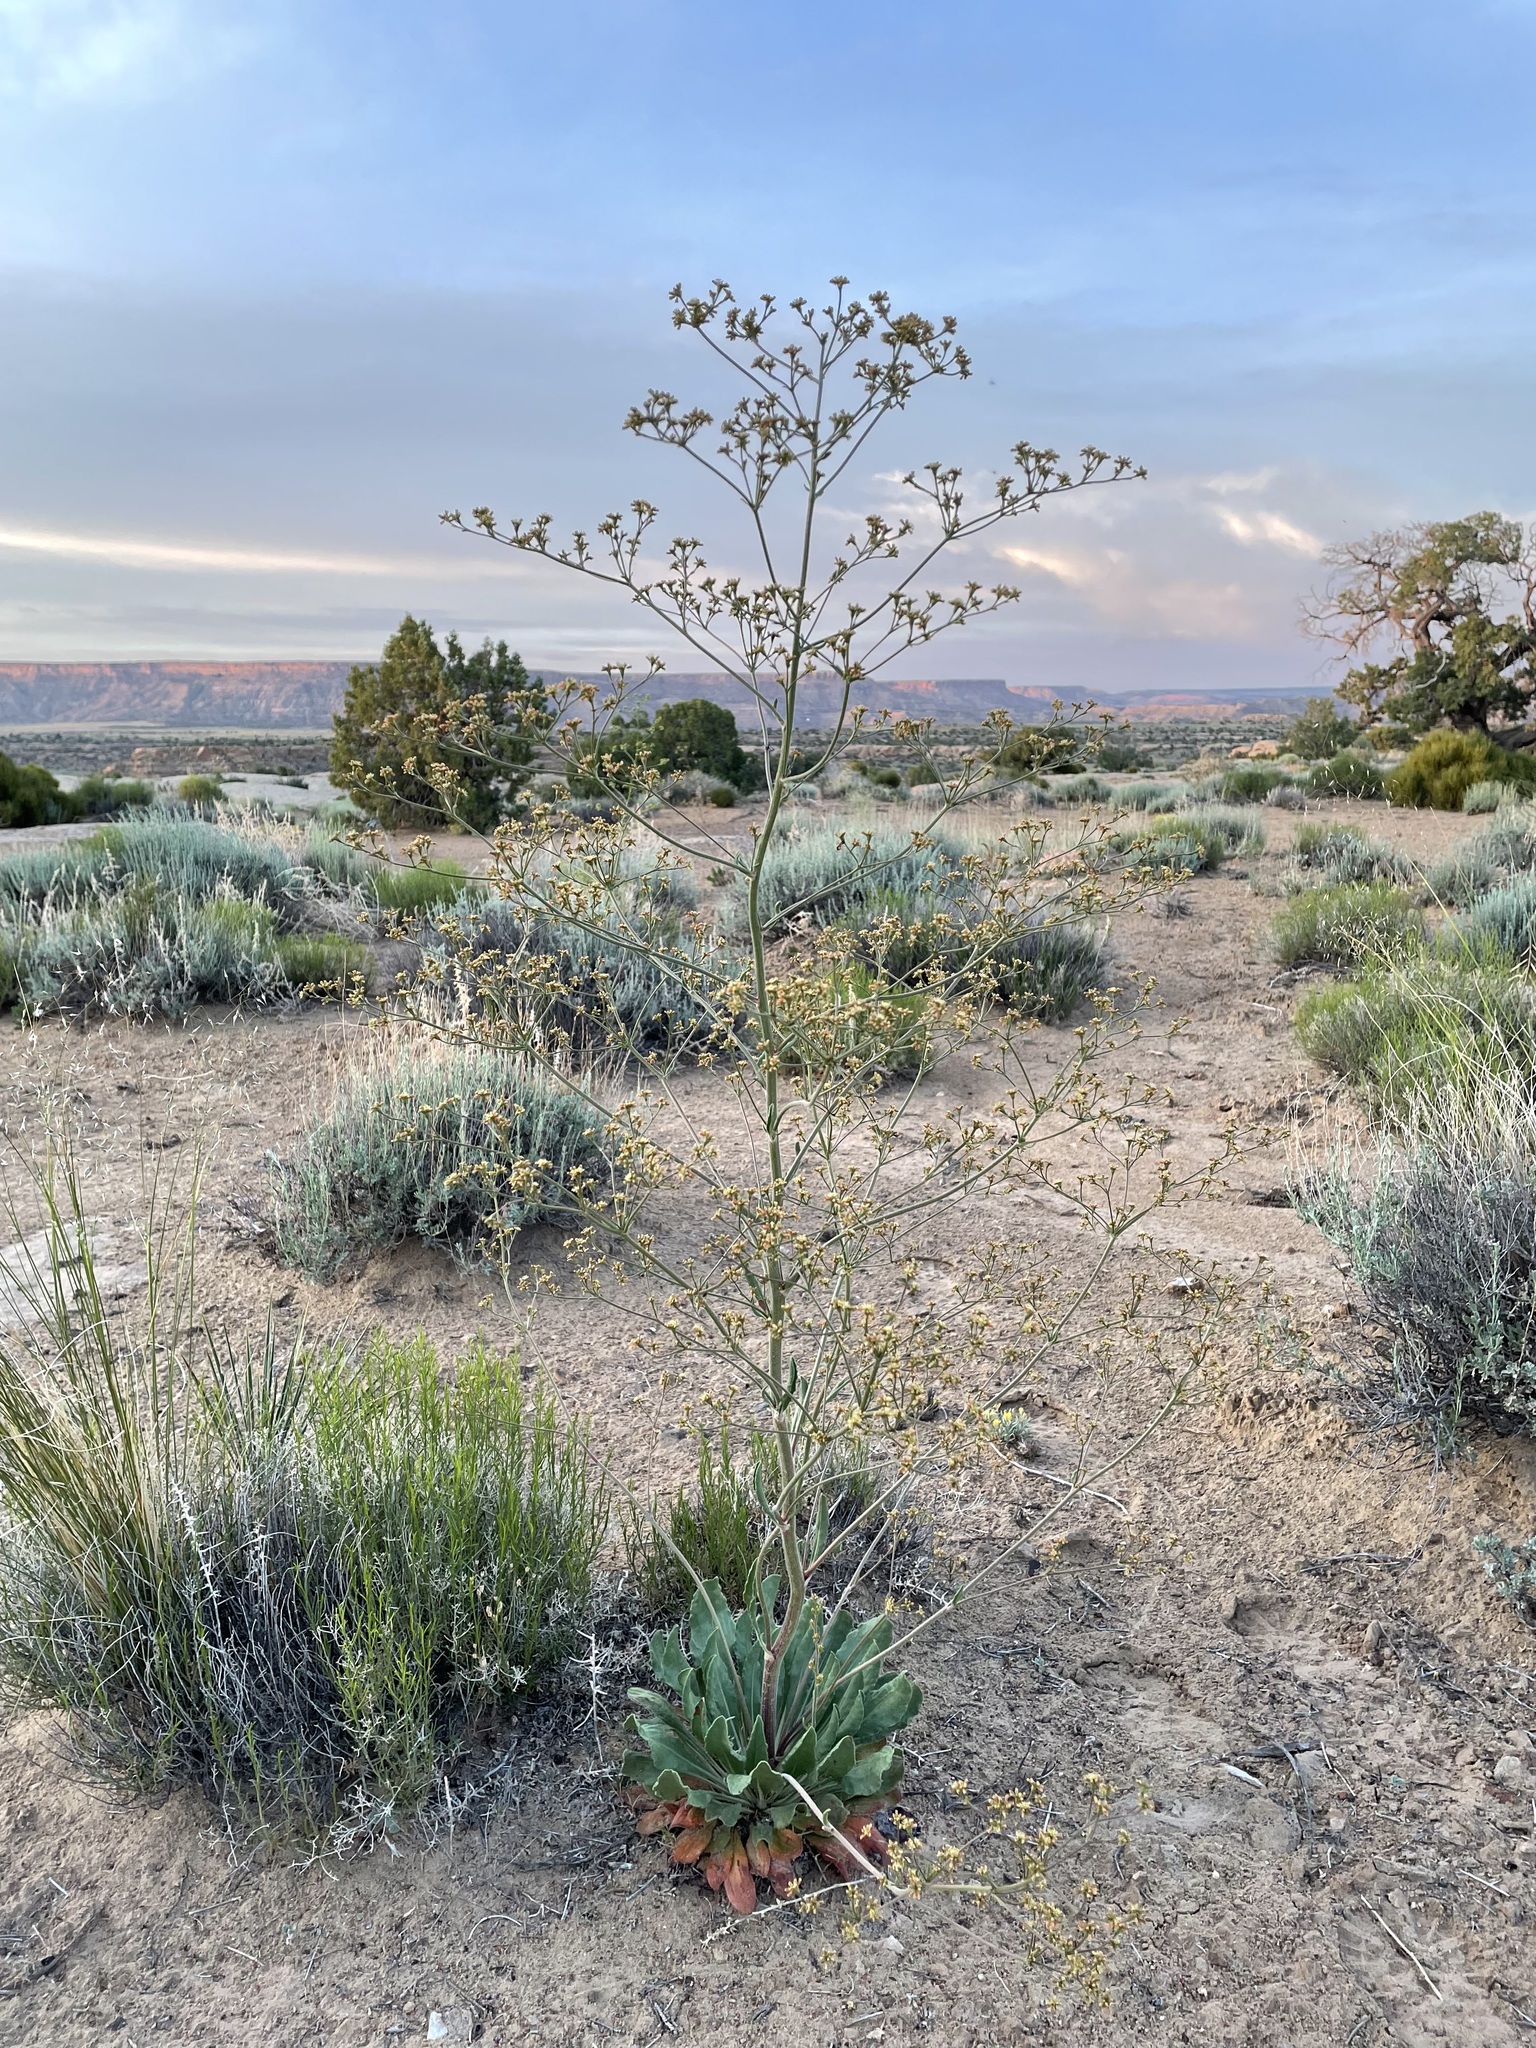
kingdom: Plantae
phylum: Tracheophyta
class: Magnoliopsida
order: Caryophyllales
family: Polygonaceae
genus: Eriogonum
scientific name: Eriogonum alatum
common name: Winged eriogonum
